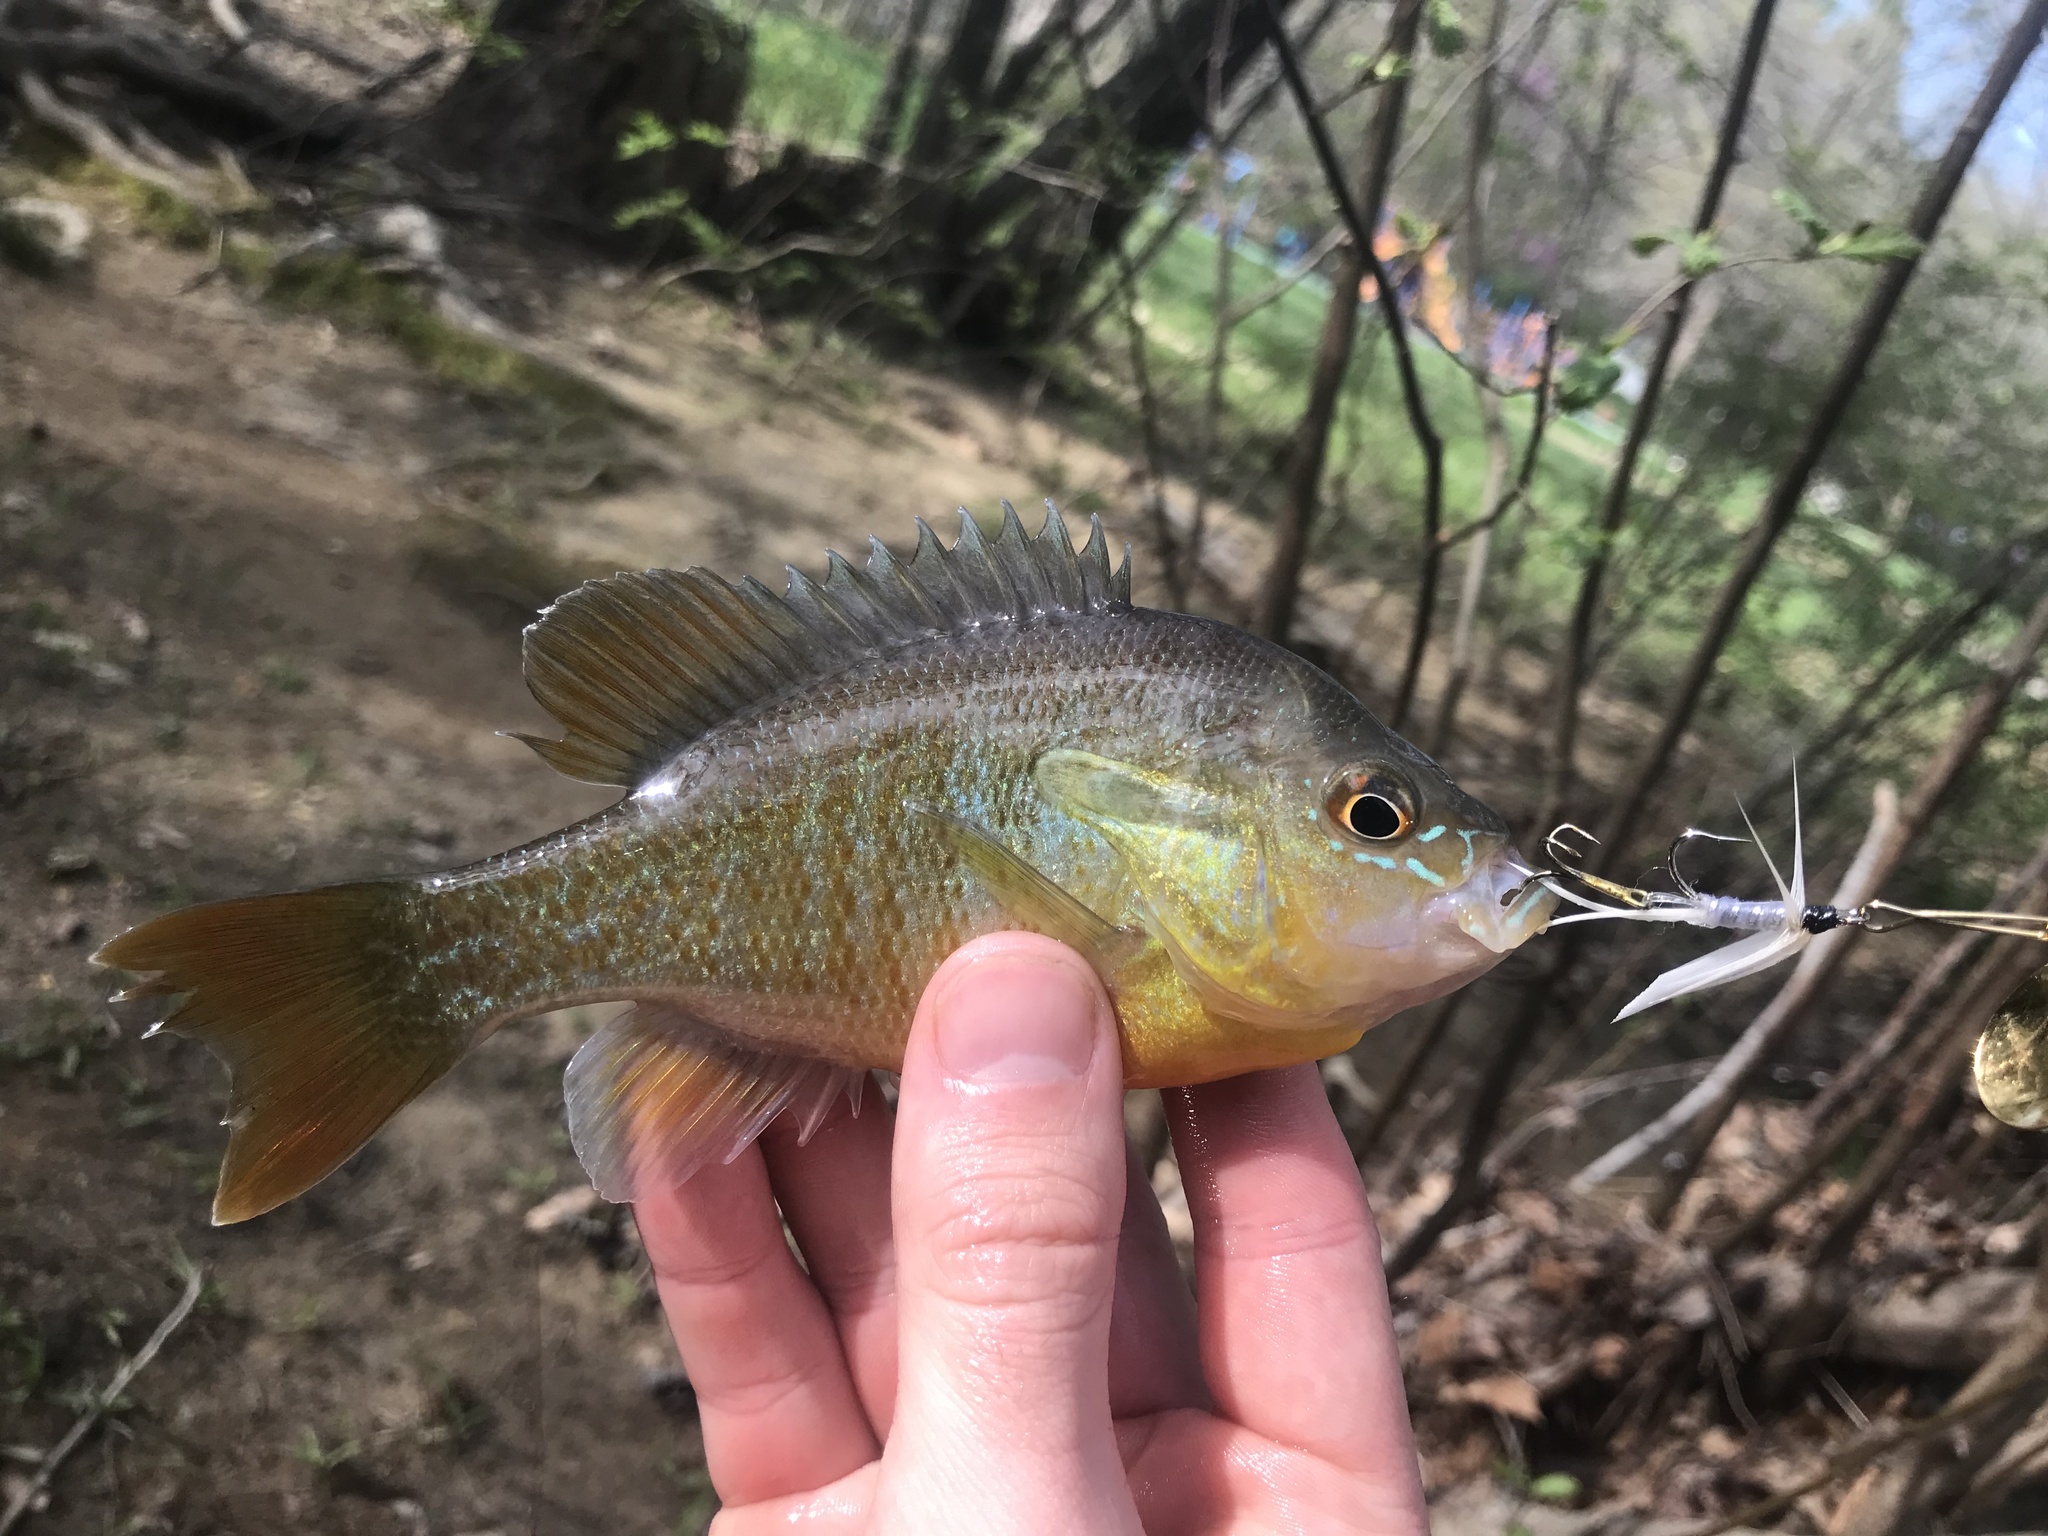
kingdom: Animalia
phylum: Chordata
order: Perciformes
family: Centrarchidae
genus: Lepomis
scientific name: Lepomis auritus
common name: Redbreast sunfish
